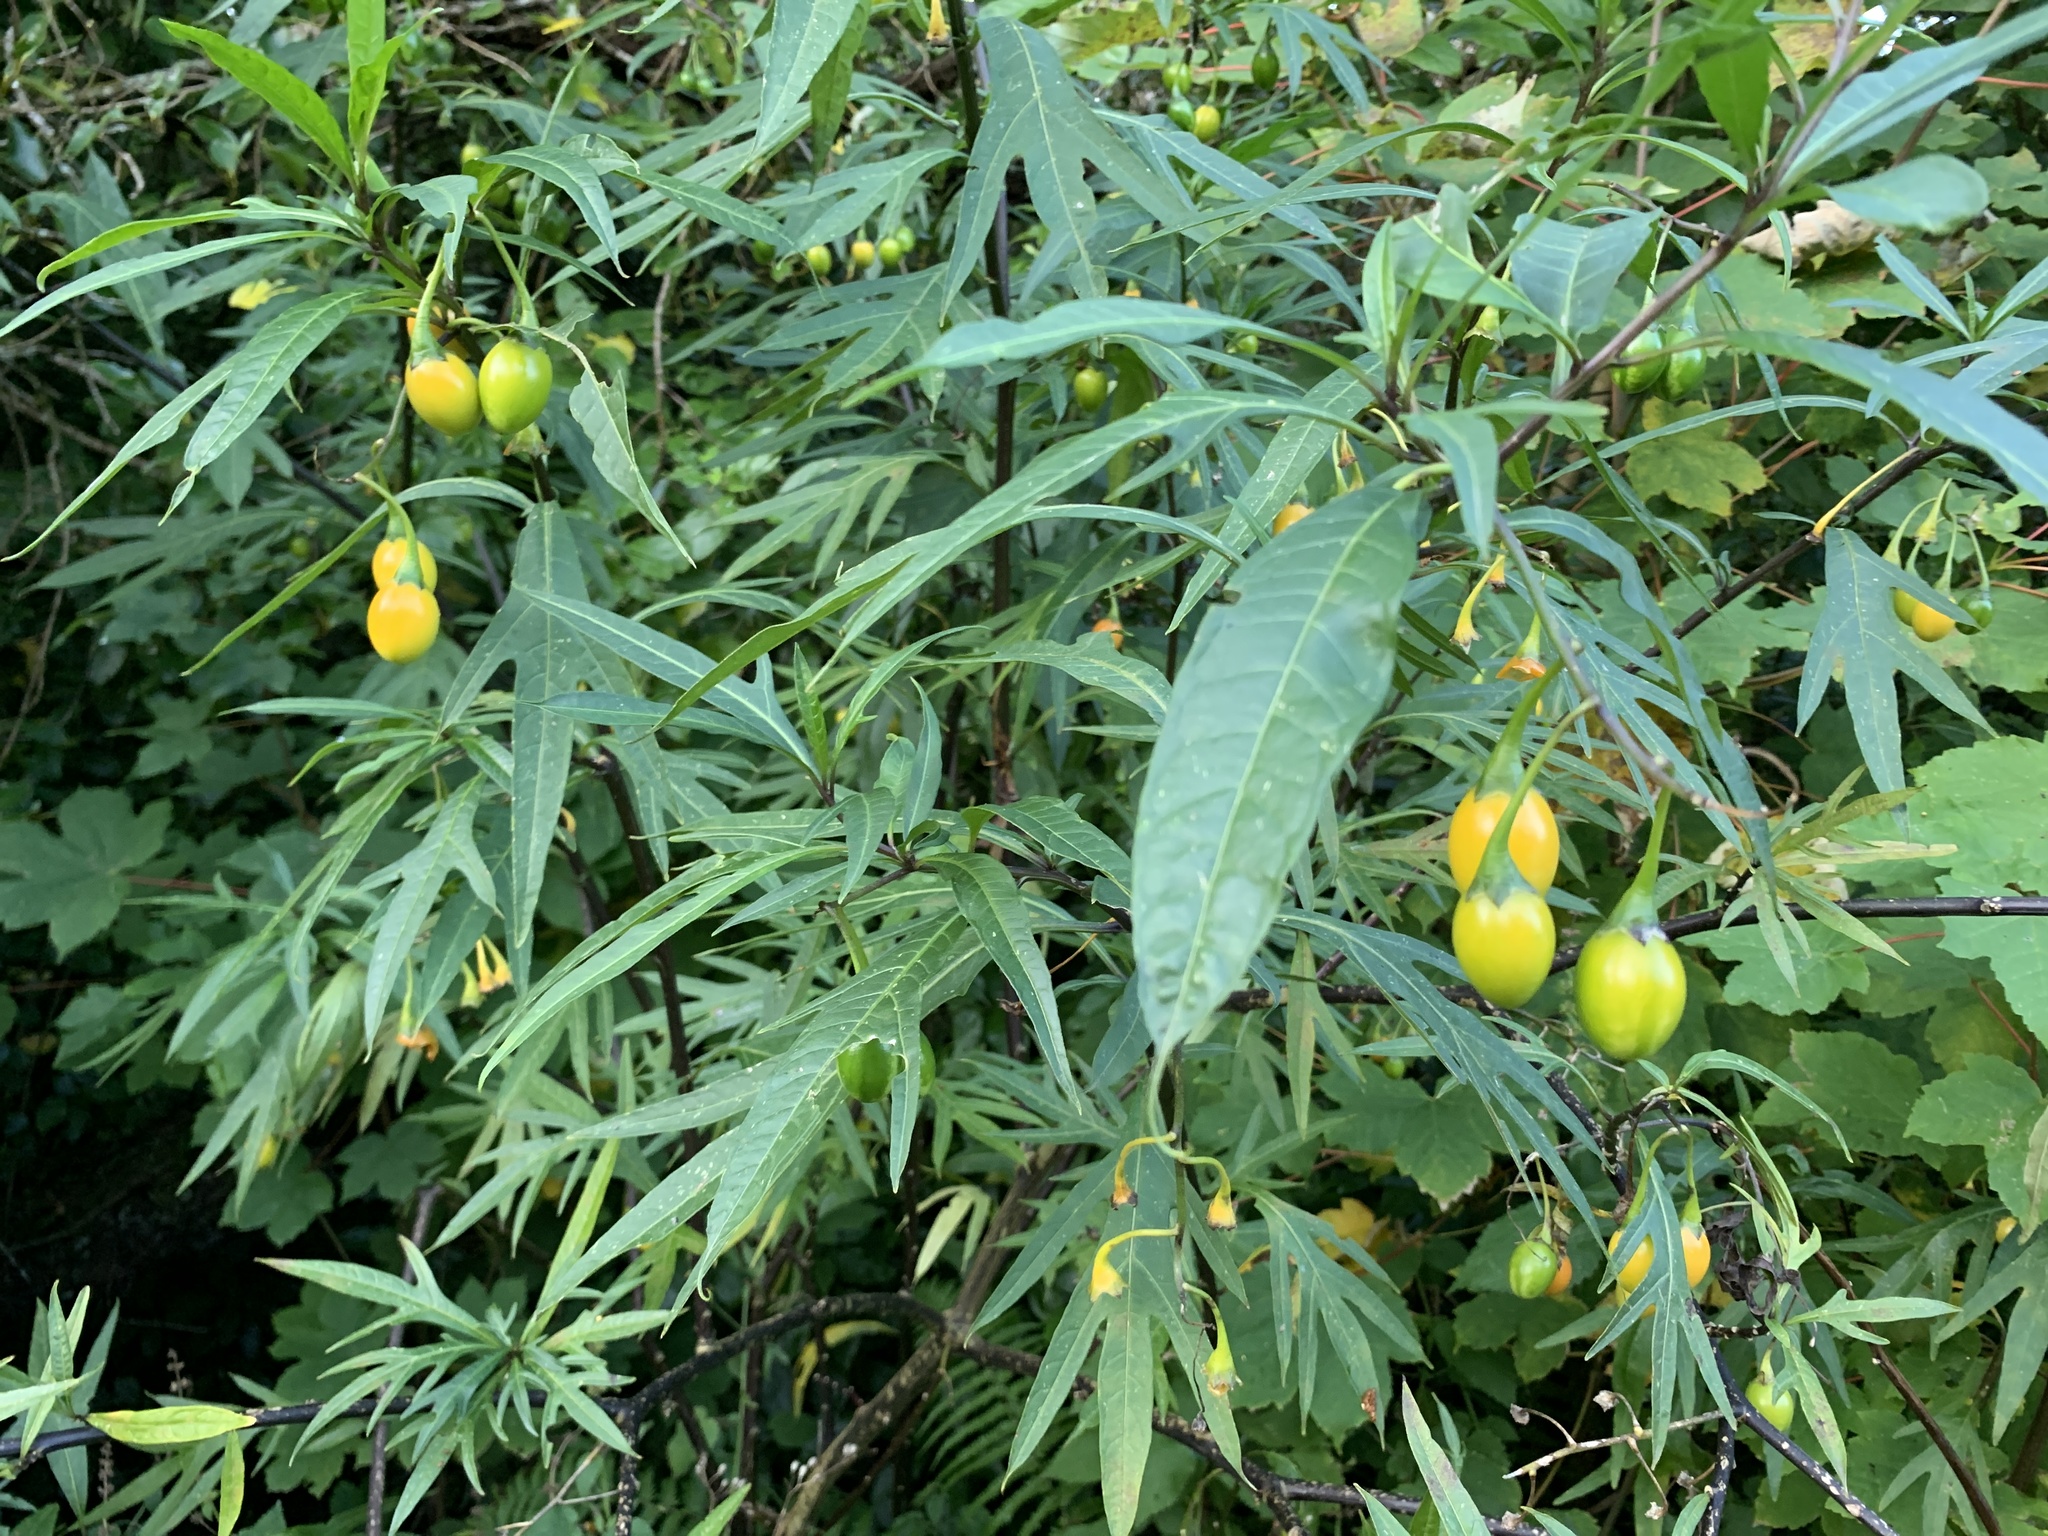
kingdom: Plantae
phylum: Tracheophyta
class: Magnoliopsida
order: Solanales
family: Solanaceae
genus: Solanum
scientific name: Solanum laciniatum
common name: Kangaroo-apple
